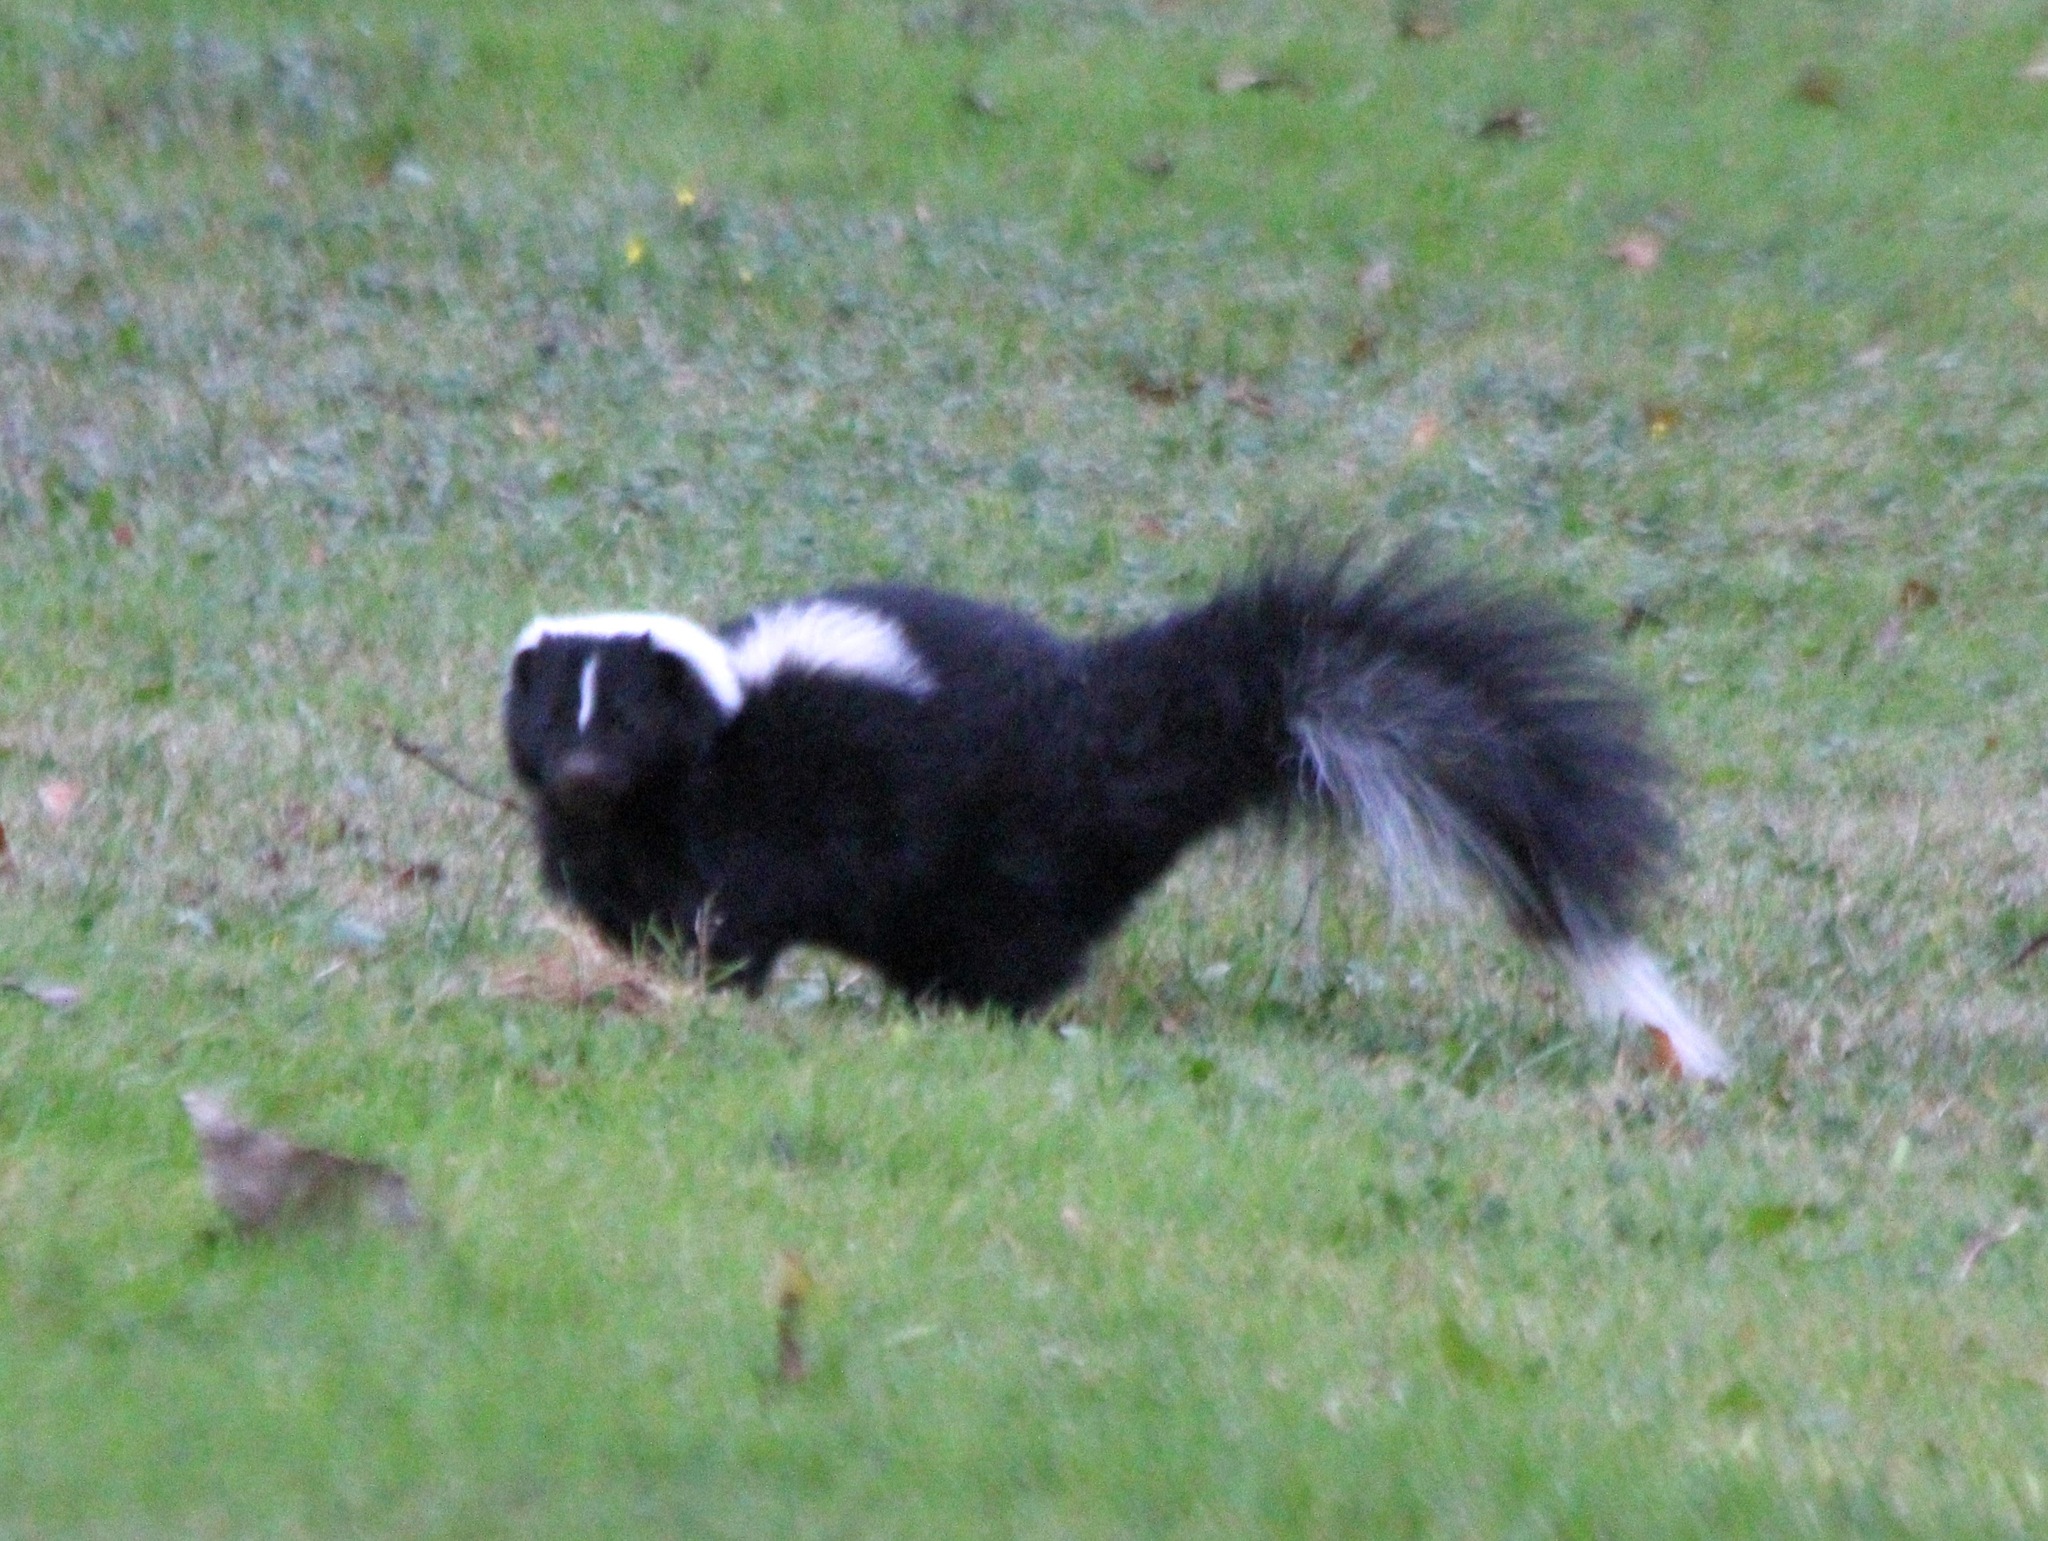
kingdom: Animalia
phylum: Chordata
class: Mammalia
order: Carnivora
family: Mephitidae
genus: Mephitis
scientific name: Mephitis mephitis
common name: Striped skunk
